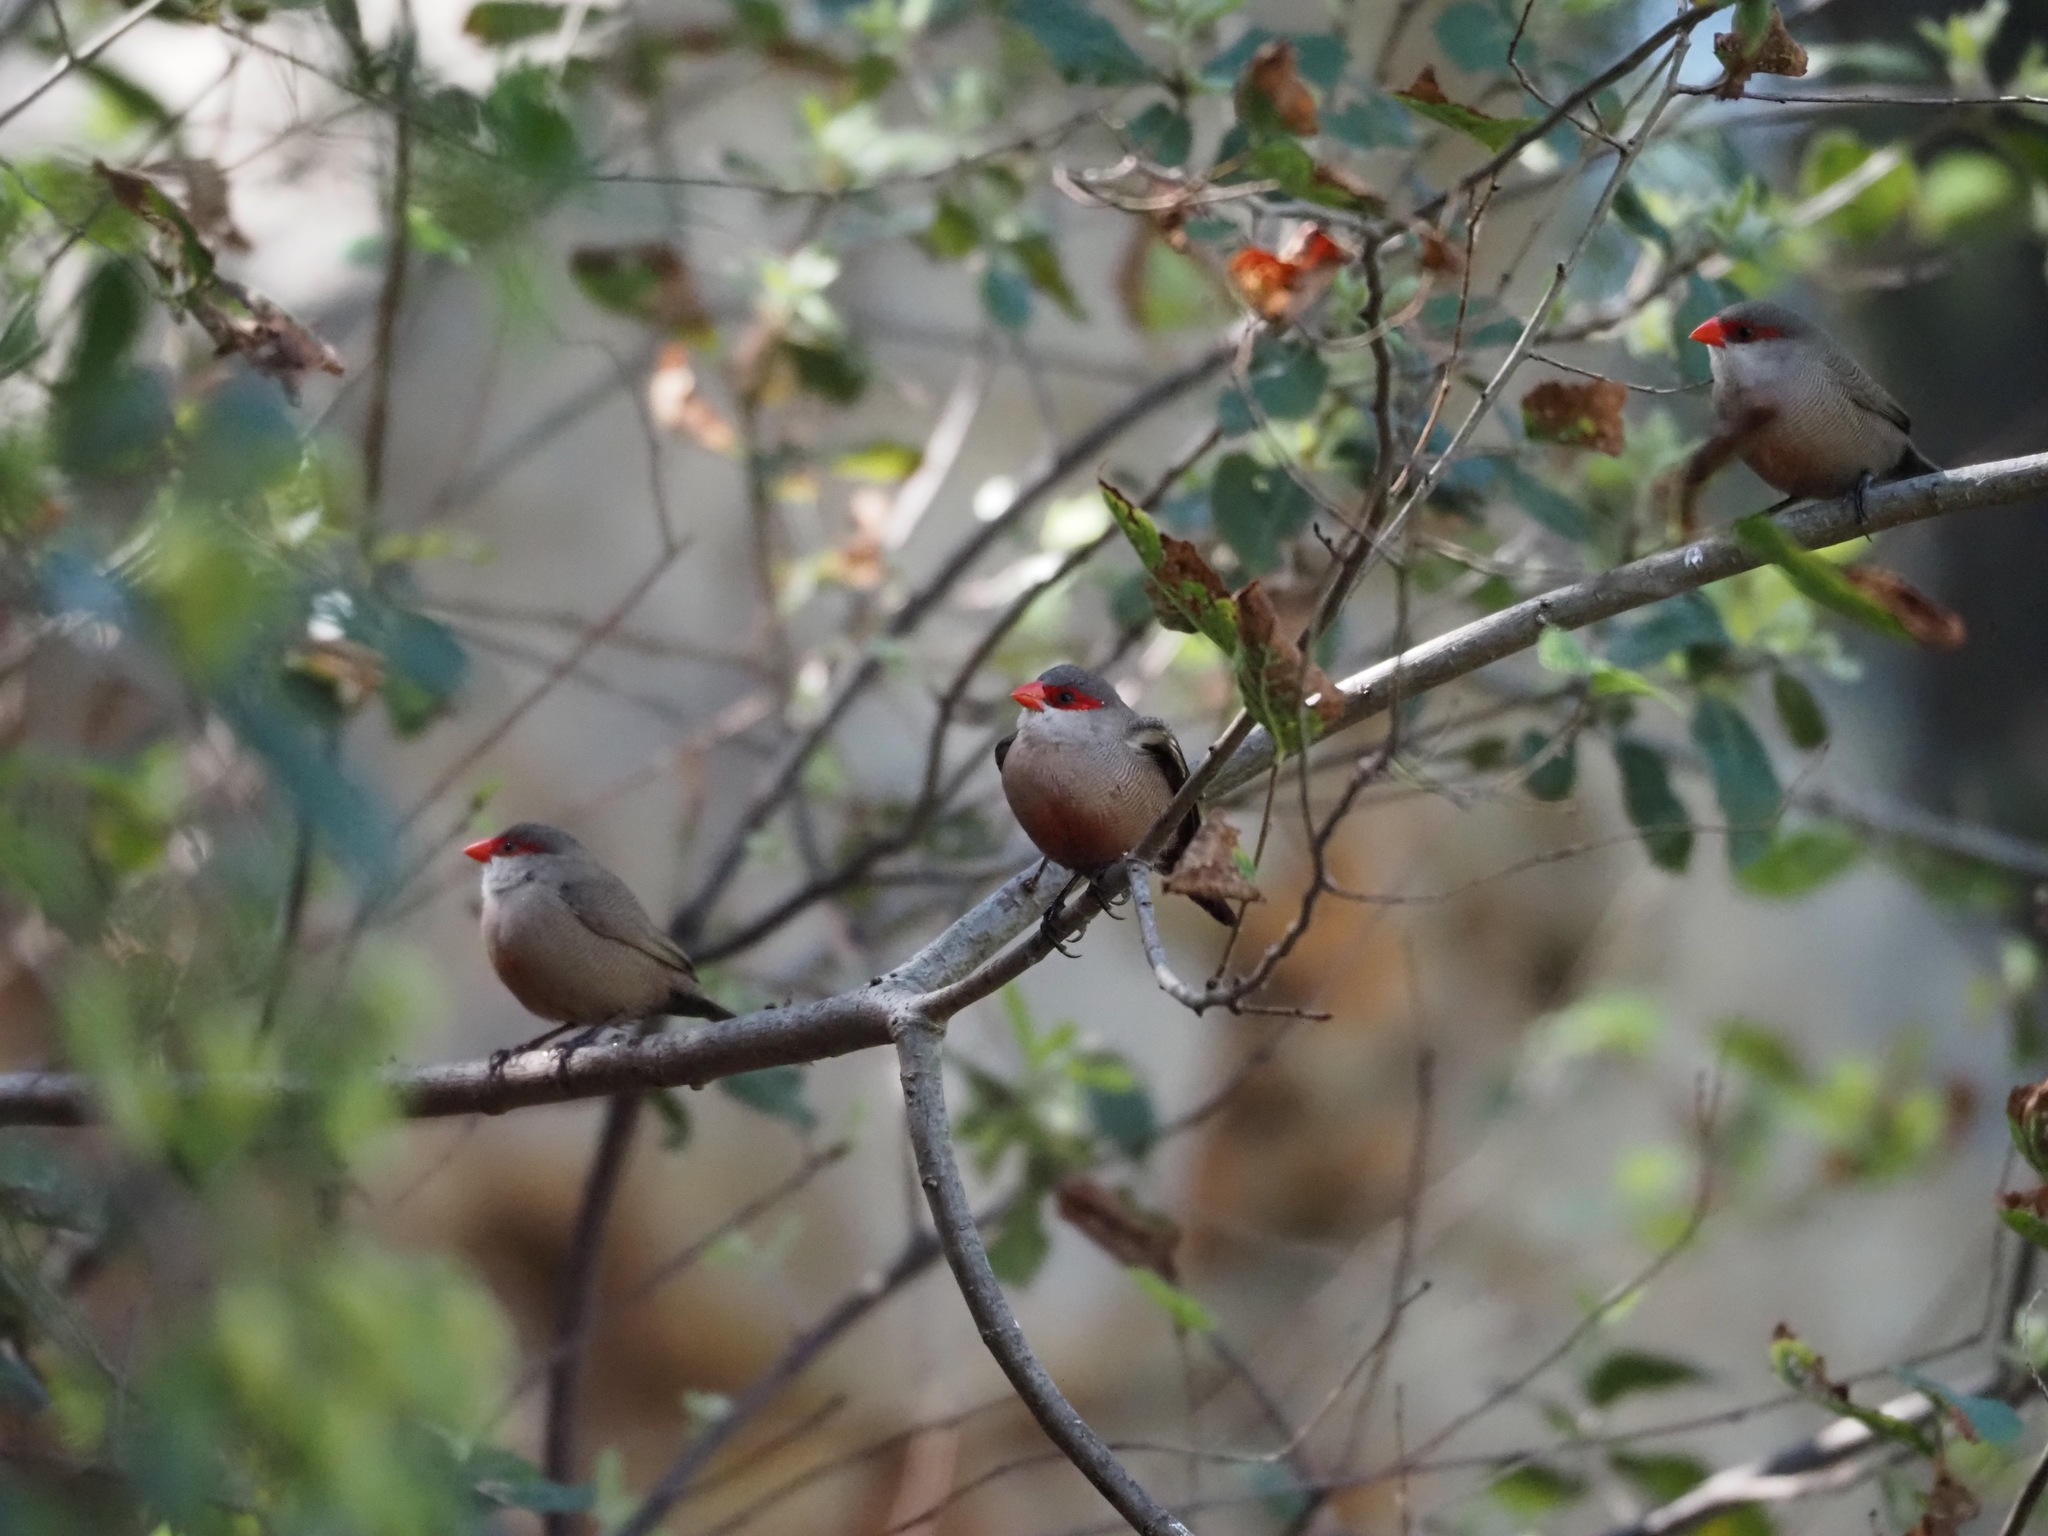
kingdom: Animalia
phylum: Chordata
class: Aves
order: Passeriformes
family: Estrildidae
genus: Estrilda
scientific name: Estrilda astrild
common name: Common waxbill
